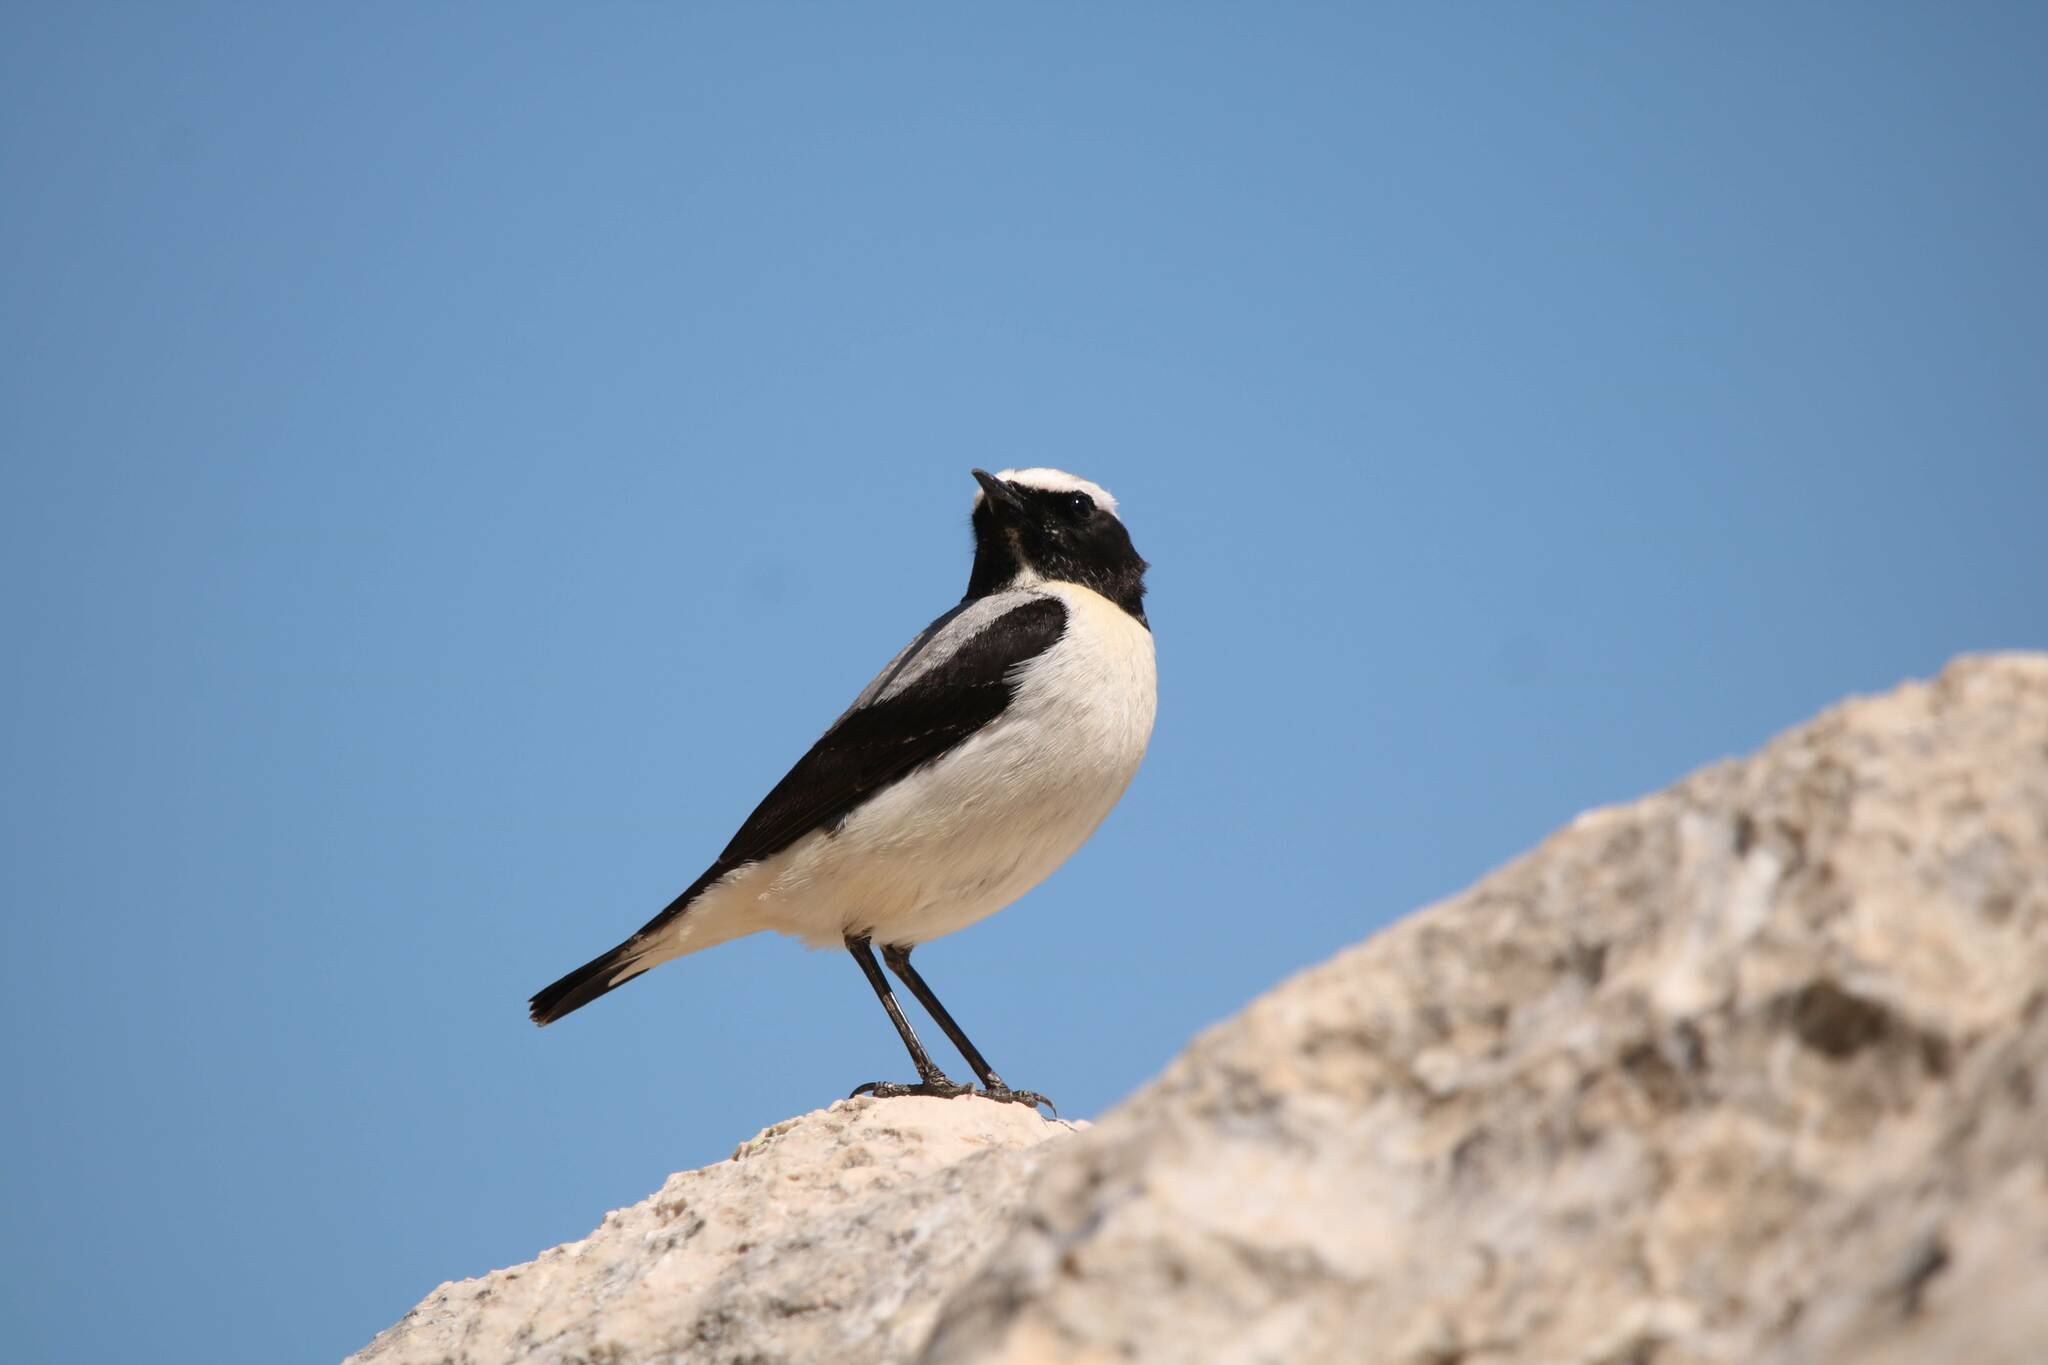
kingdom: Animalia
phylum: Chordata
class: Aves
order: Passeriformes
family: Muscicapidae
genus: Oenanthe
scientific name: Oenanthe oenanthe
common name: Northern wheatear
